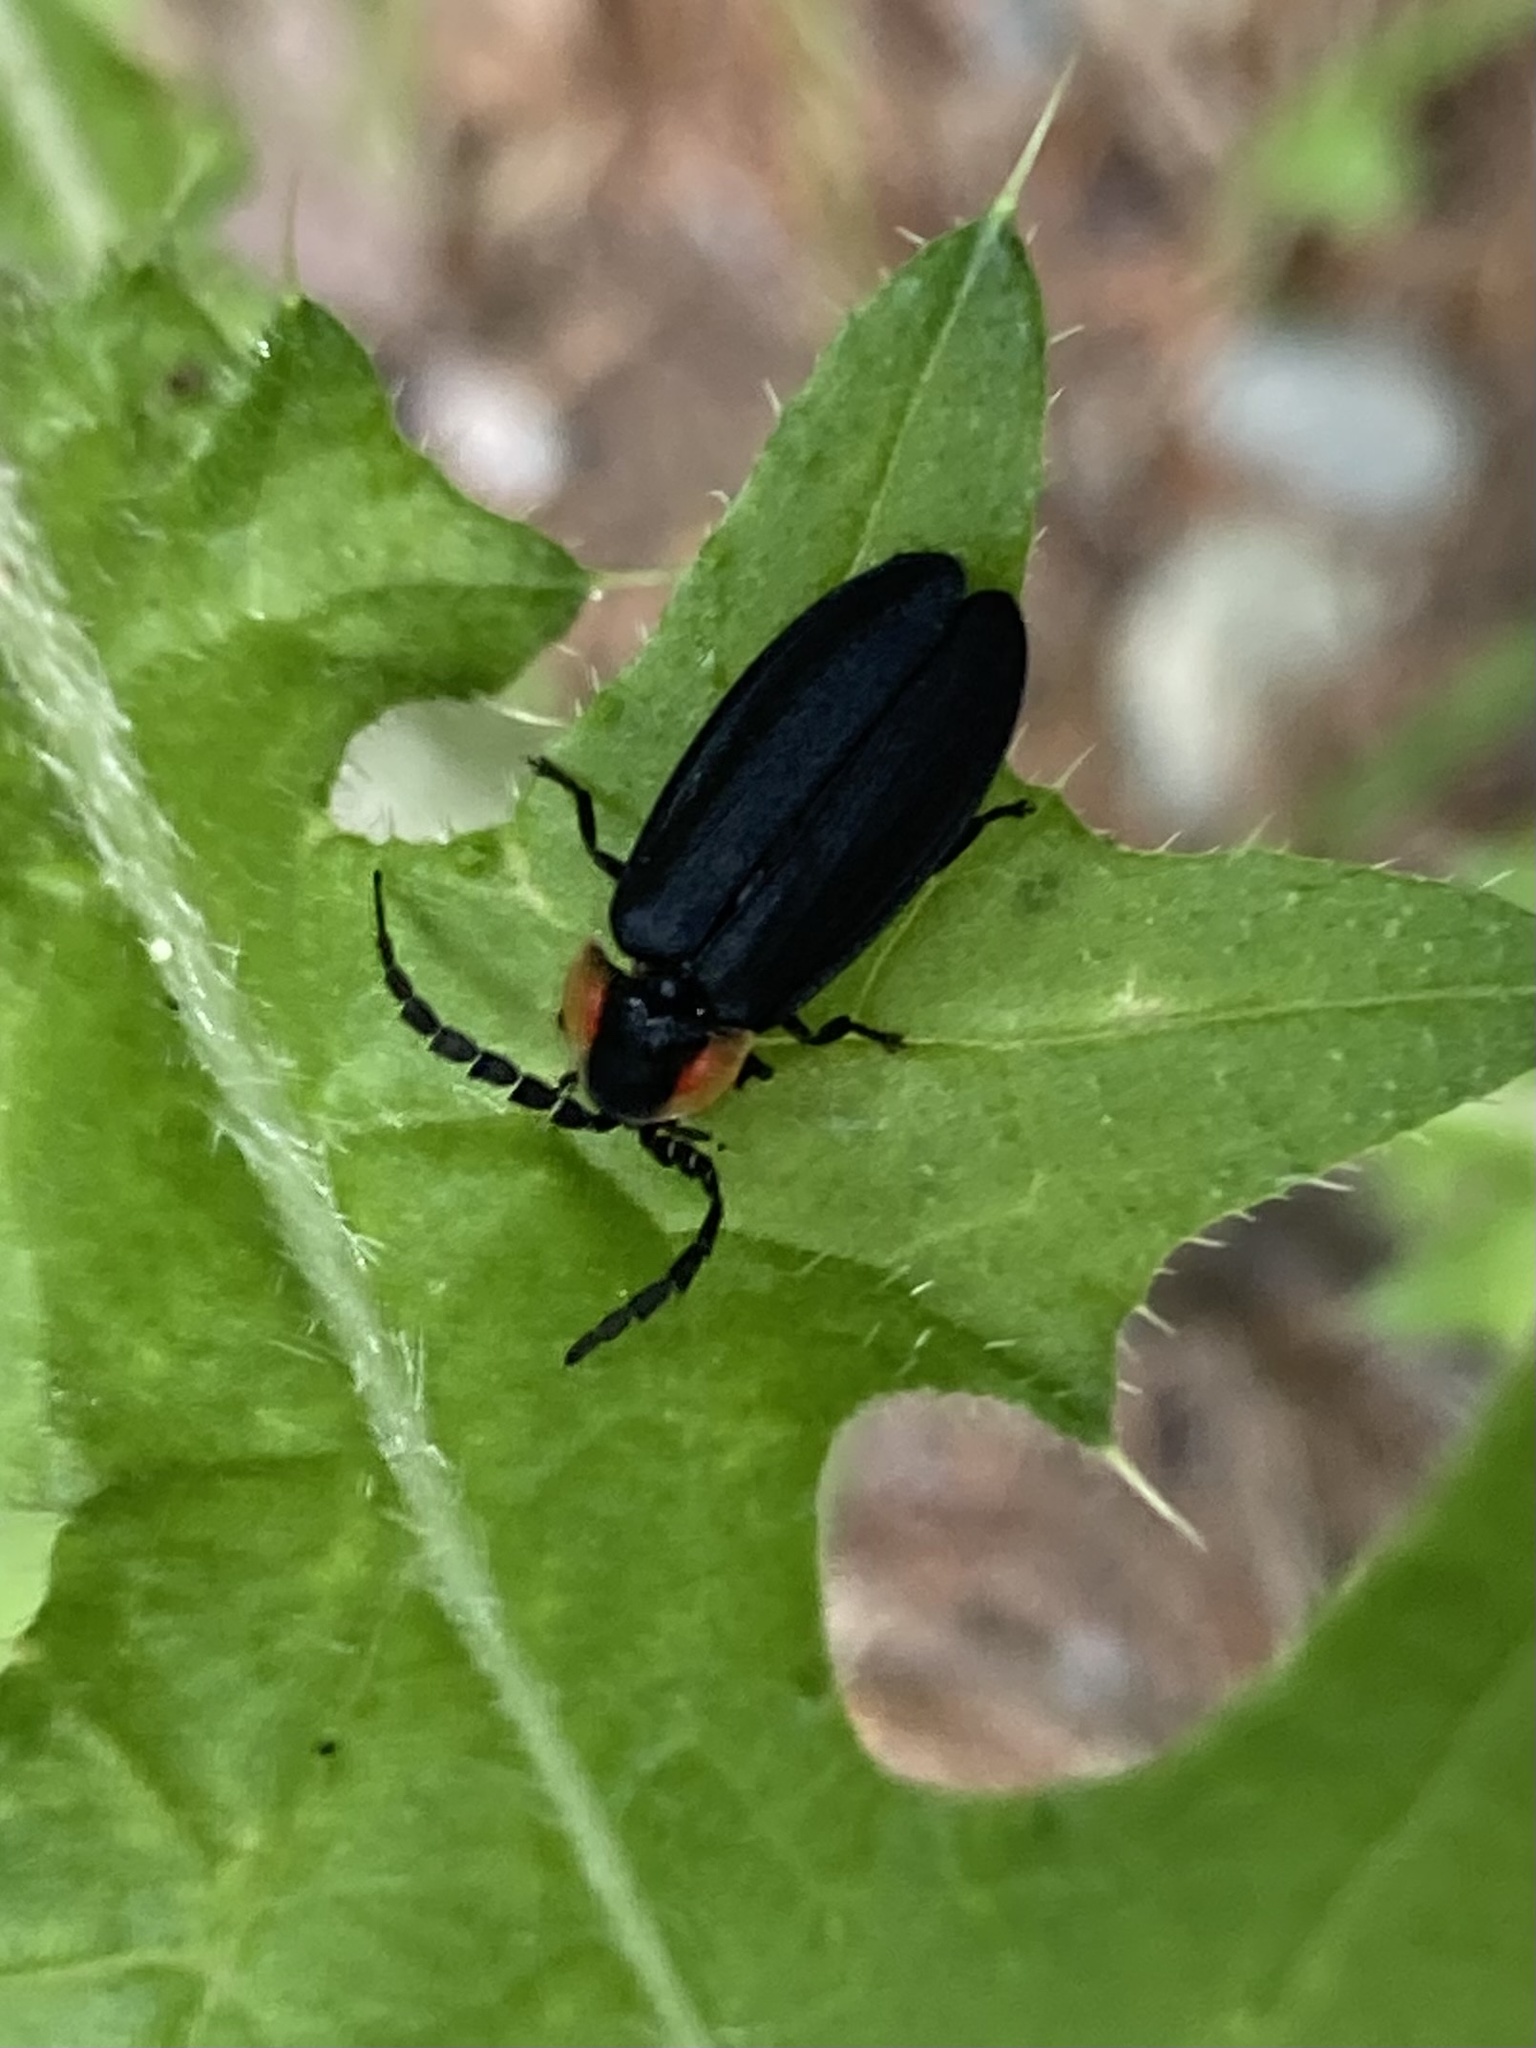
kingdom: Animalia
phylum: Arthropoda
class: Insecta
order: Coleoptera
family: Lampyridae
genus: Lucidota
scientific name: Lucidota atra
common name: Black firefly
